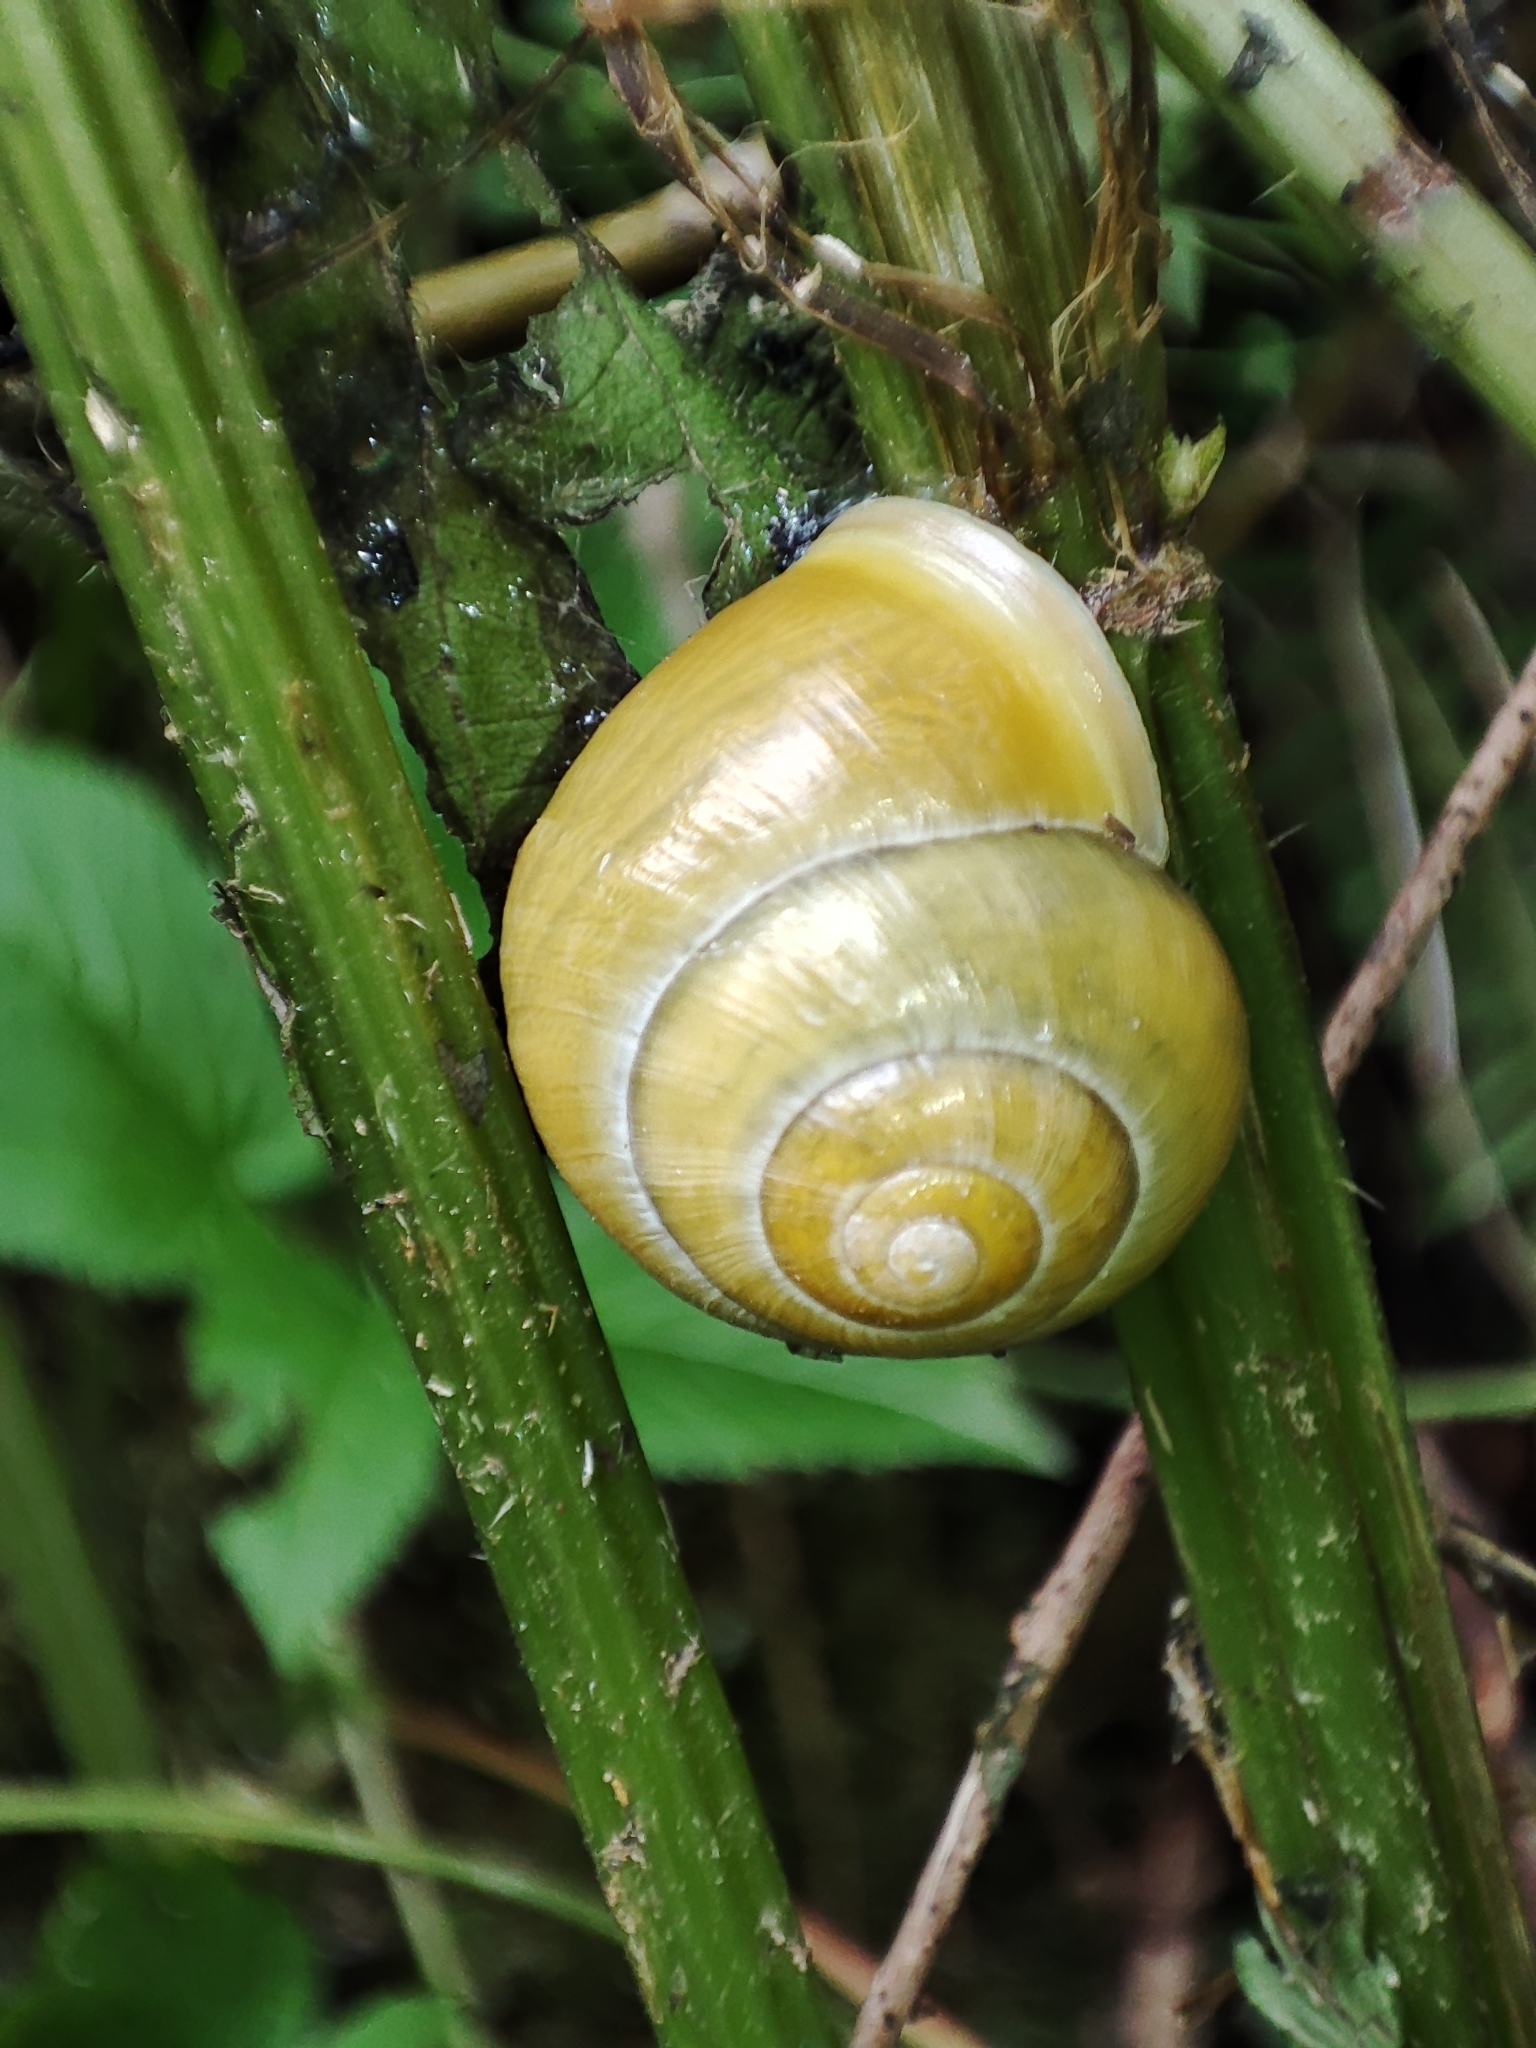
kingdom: Animalia
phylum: Mollusca
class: Gastropoda
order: Stylommatophora
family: Helicidae
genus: Cepaea
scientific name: Cepaea hortensis
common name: White-lip gardensnail
